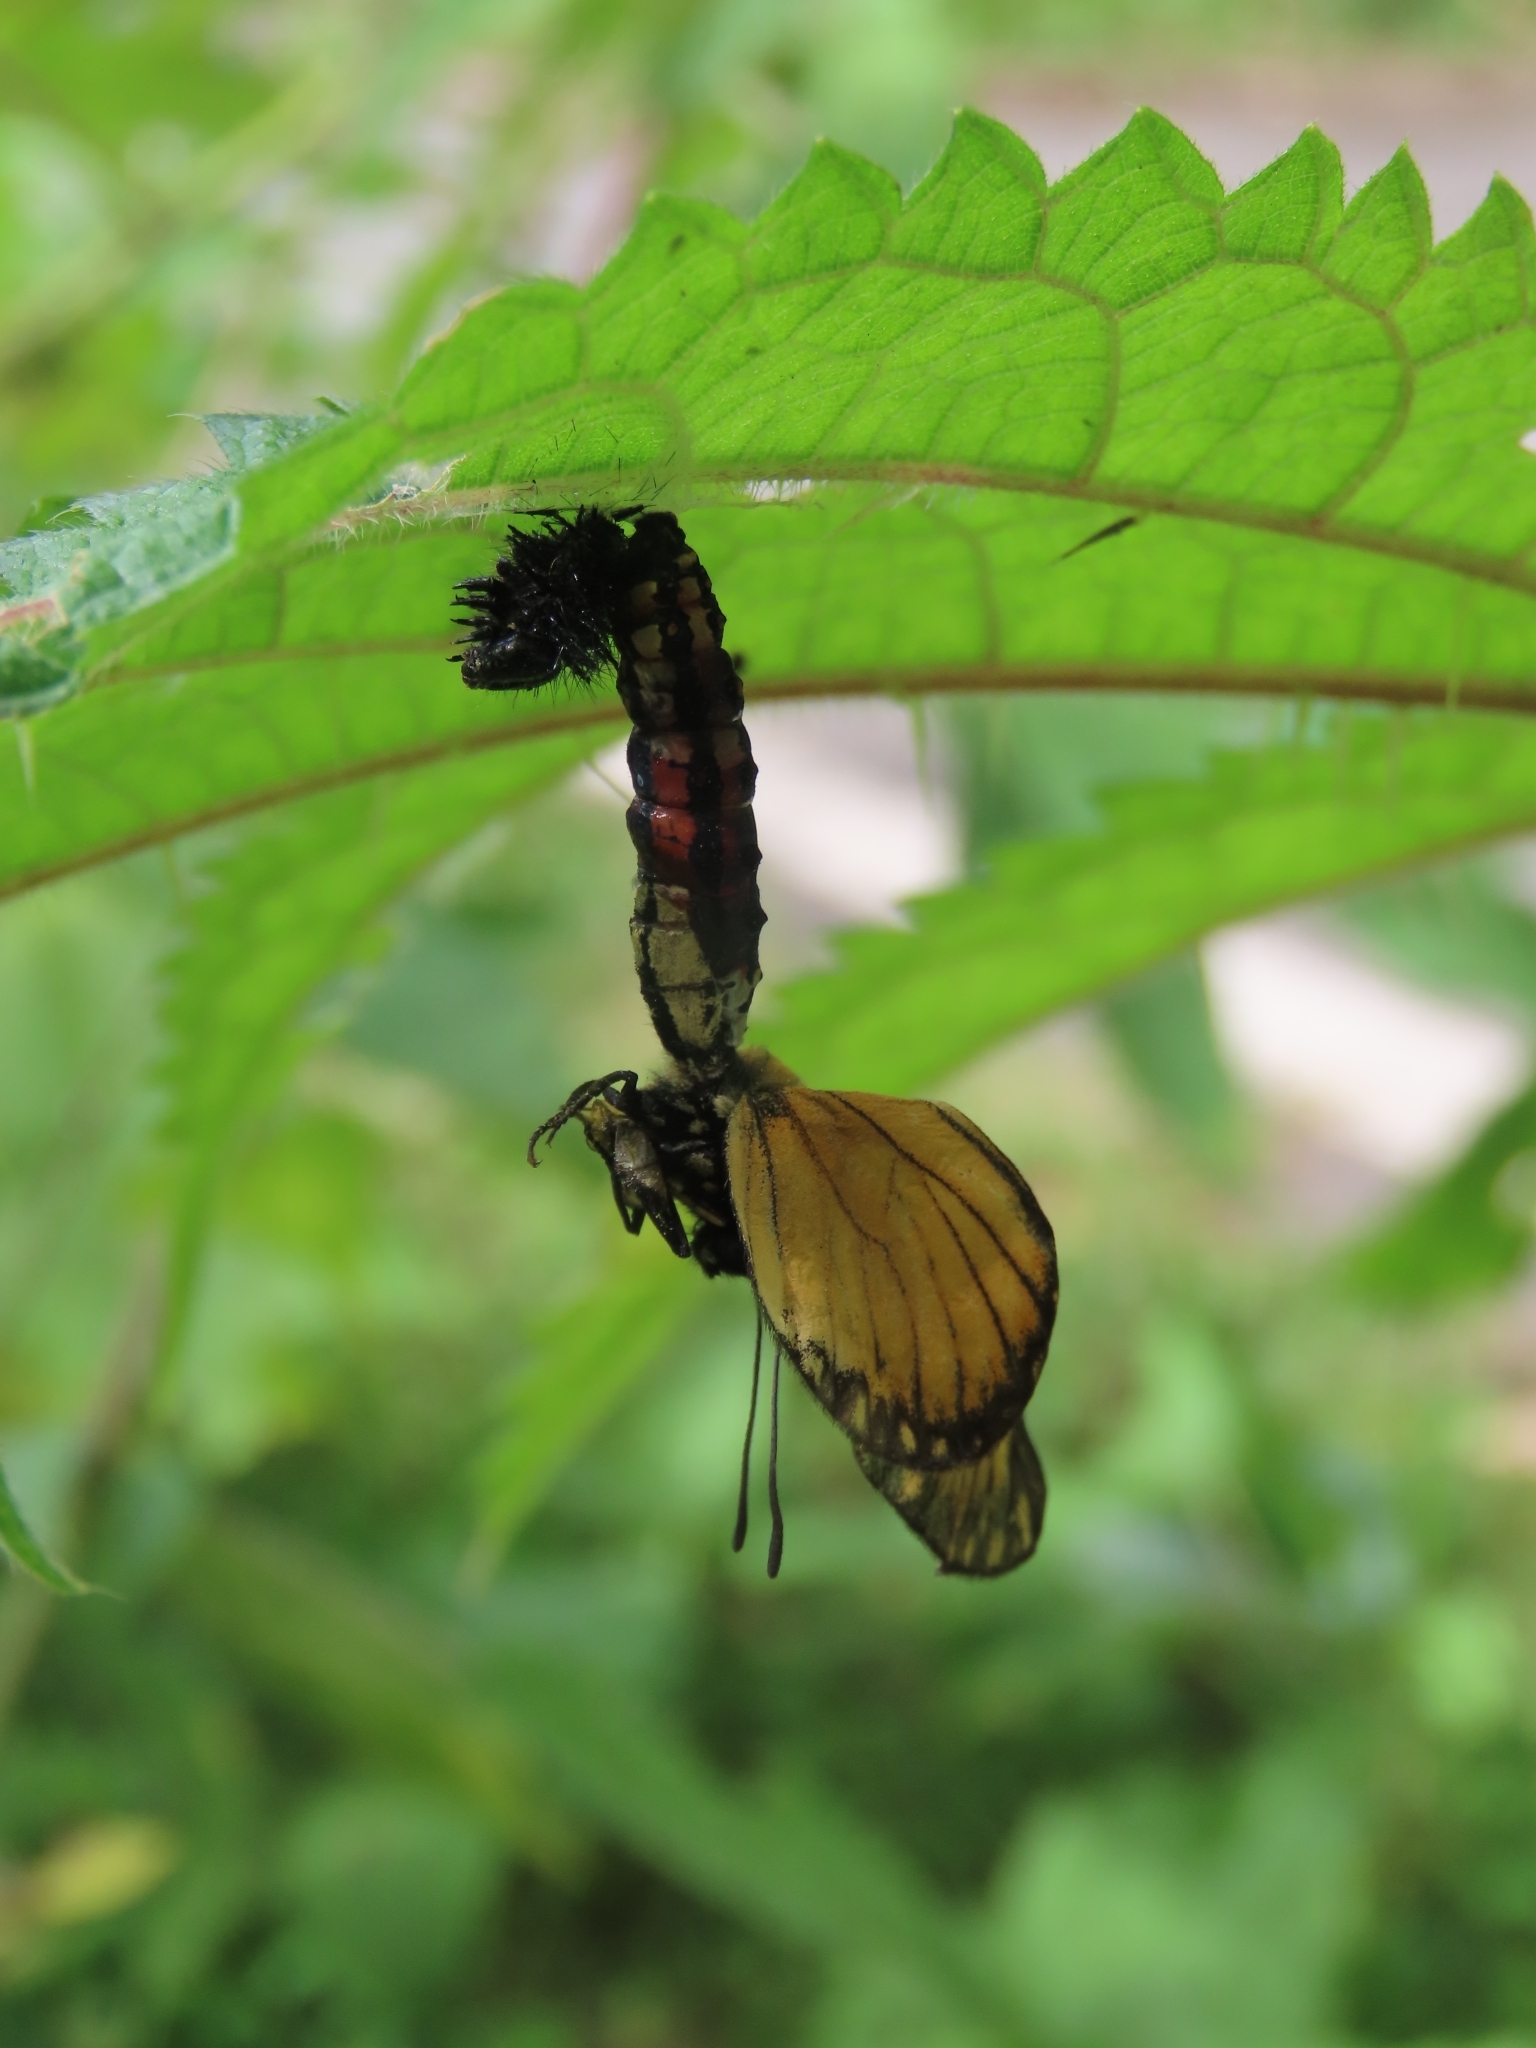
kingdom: Animalia
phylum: Arthropoda
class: Insecta
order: Lepidoptera
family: Nymphalidae
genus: Acraea
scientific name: Acraea Telchinia issoria
